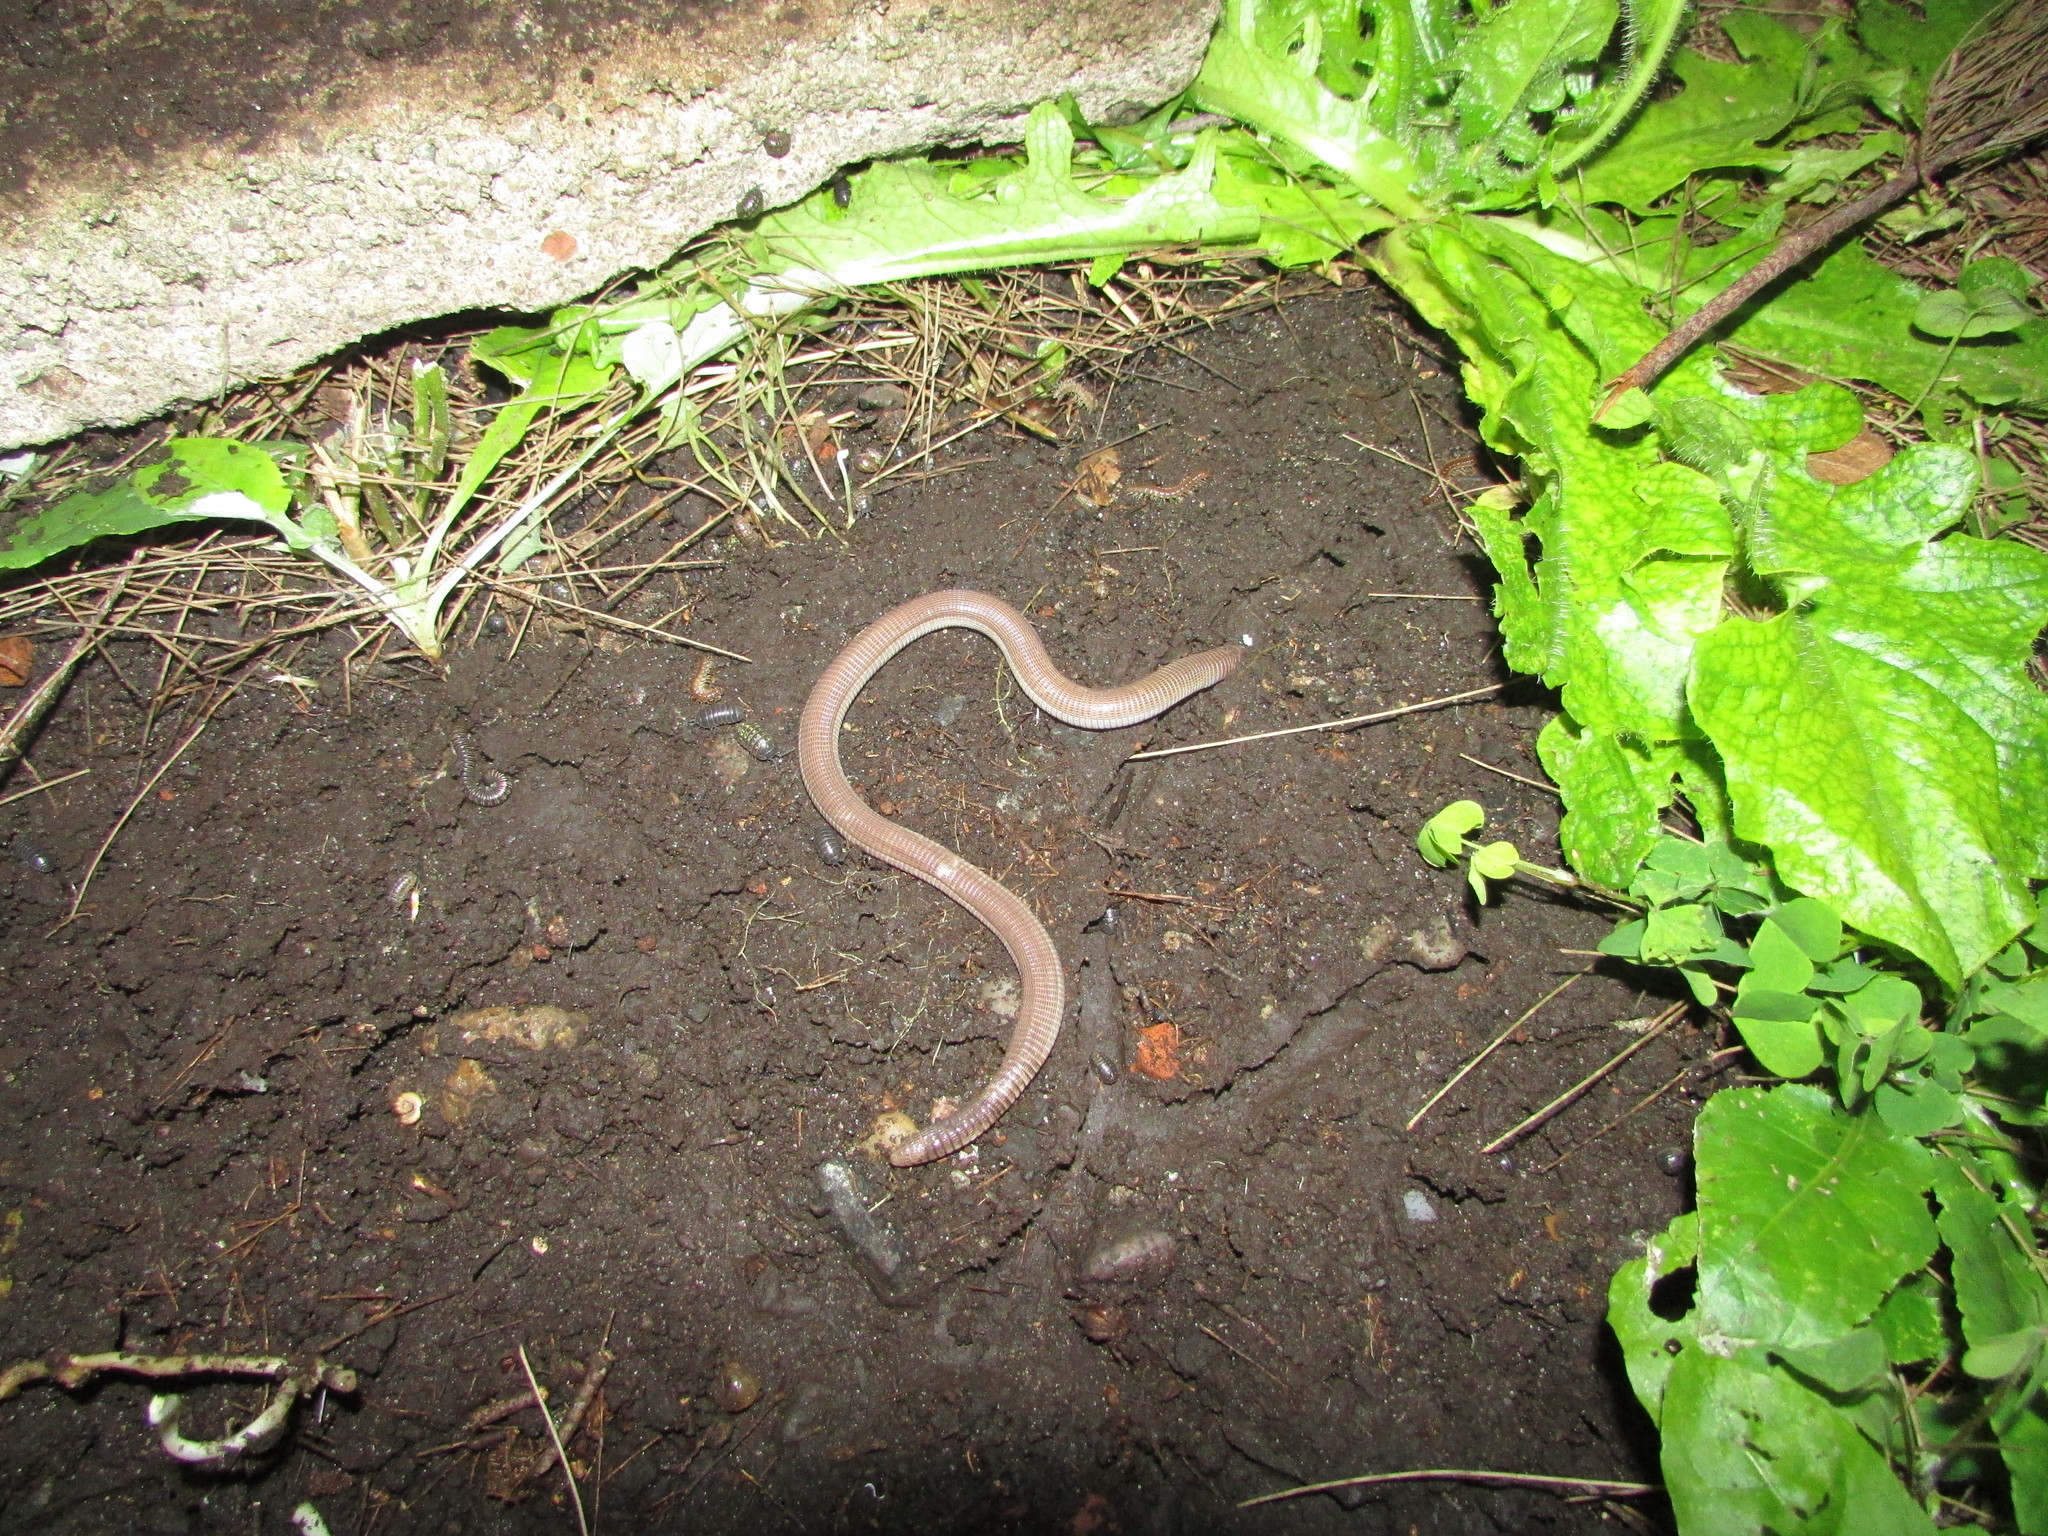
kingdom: Animalia
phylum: Chordata
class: Squamata
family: Amphisbaenidae
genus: Amphisbaena
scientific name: Amphisbaena darwinii
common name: Darwin's ringed worm lizard
